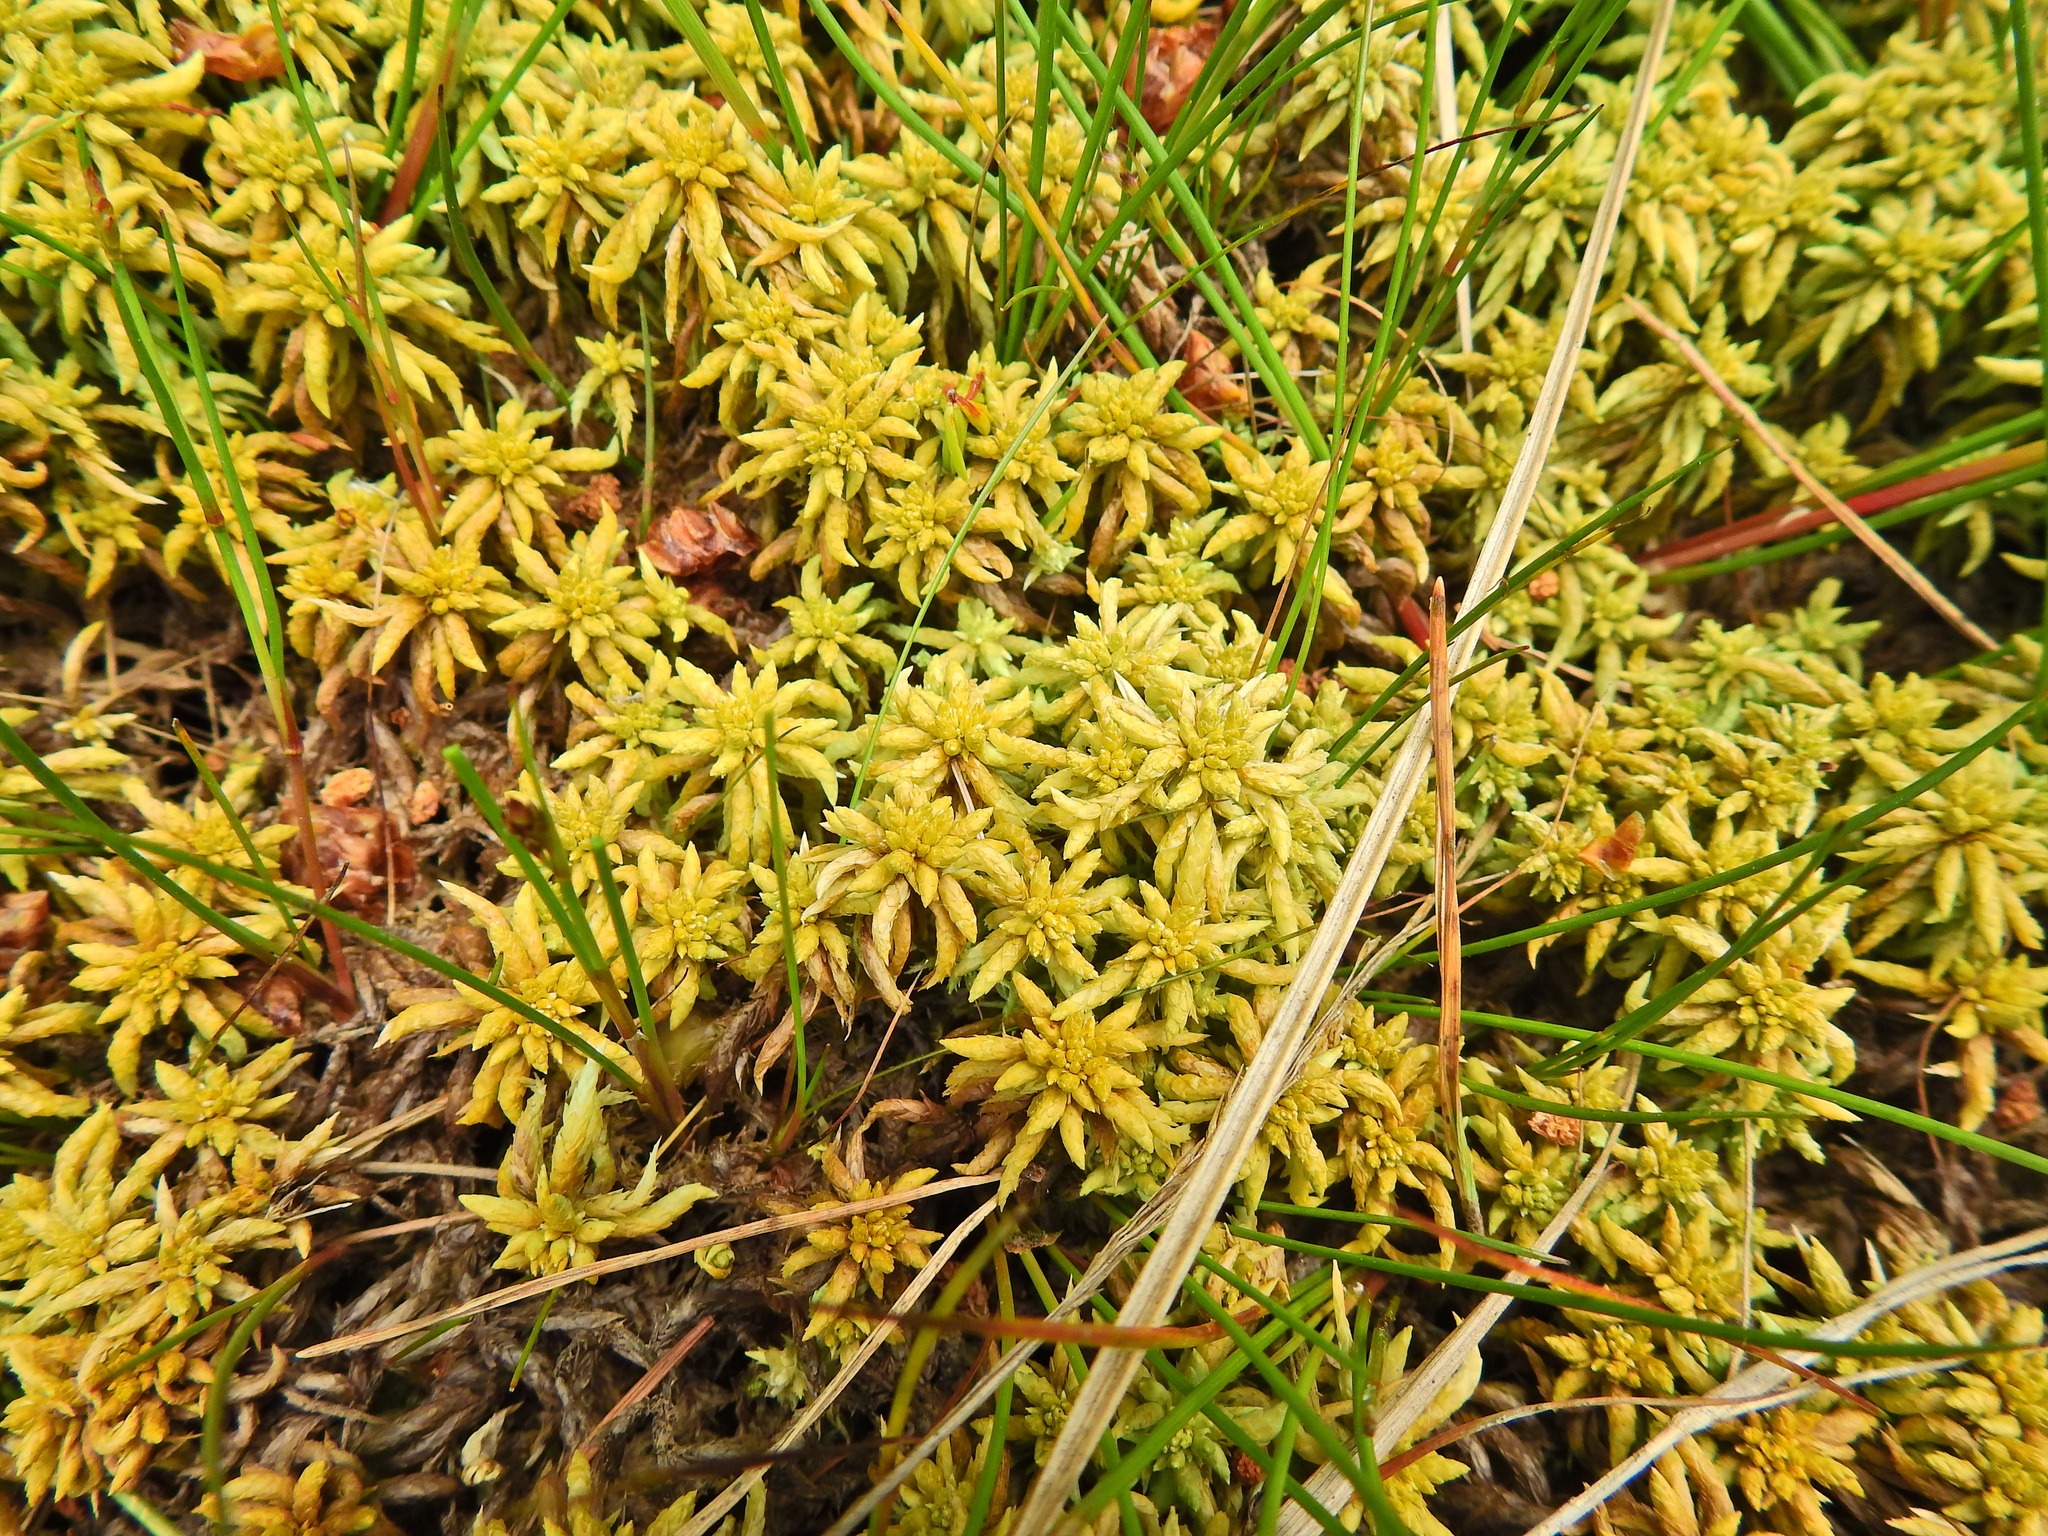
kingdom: Plantae
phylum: Bryophyta
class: Sphagnopsida
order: Sphagnales
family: Sphagnaceae
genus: Sphagnum
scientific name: Sphagnum denticulatum
